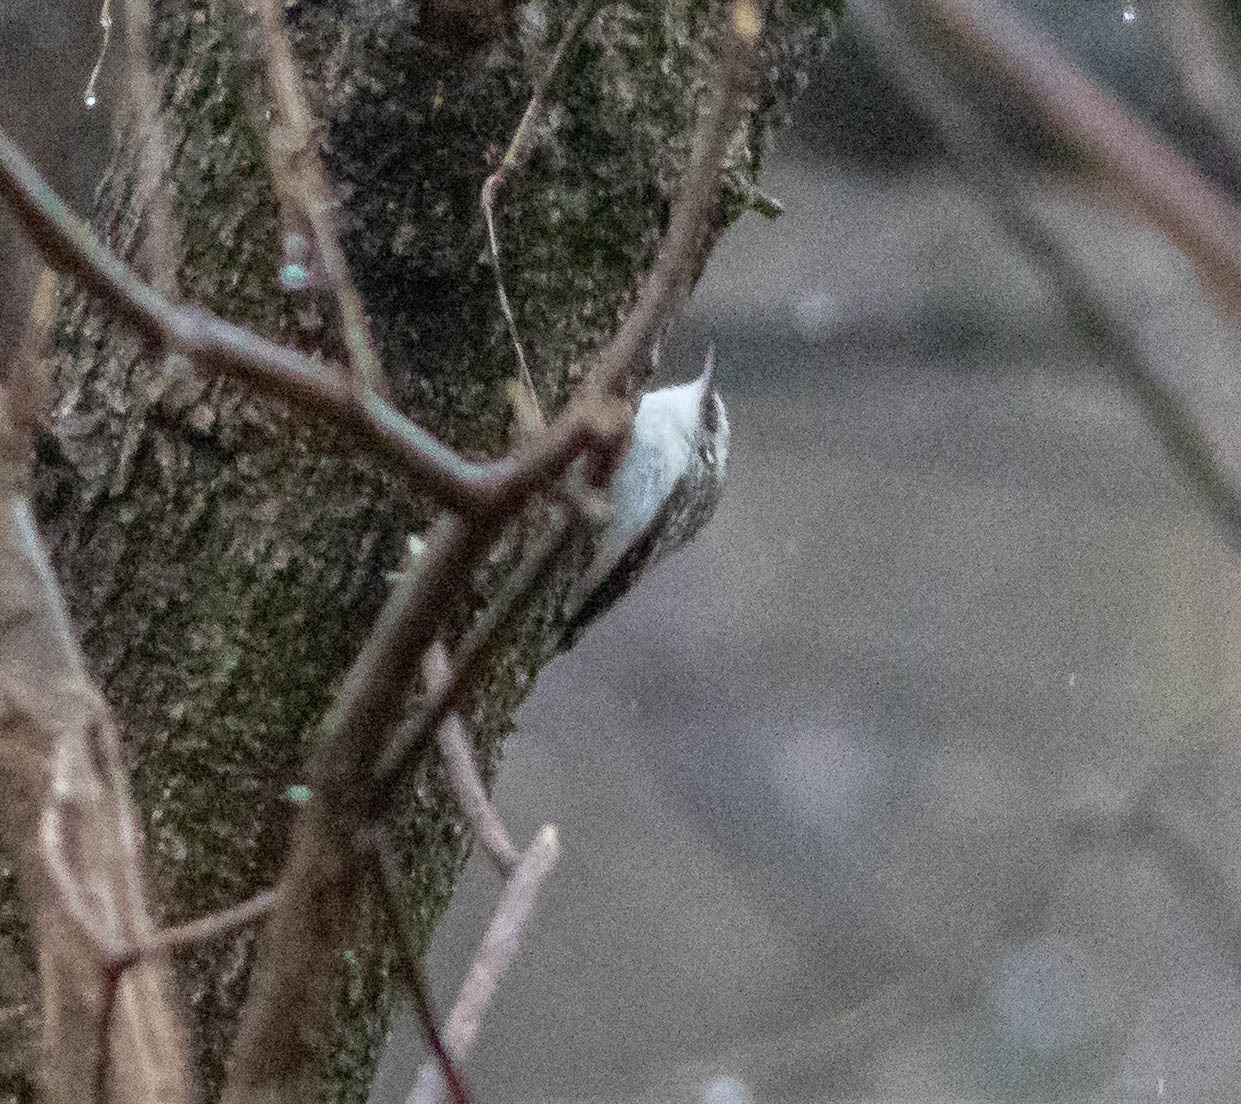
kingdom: Animalia
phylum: Chordata
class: Aves
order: Passeriformes
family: Certhiidae
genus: Certhia
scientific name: Certhia americana
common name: Brown creeper
